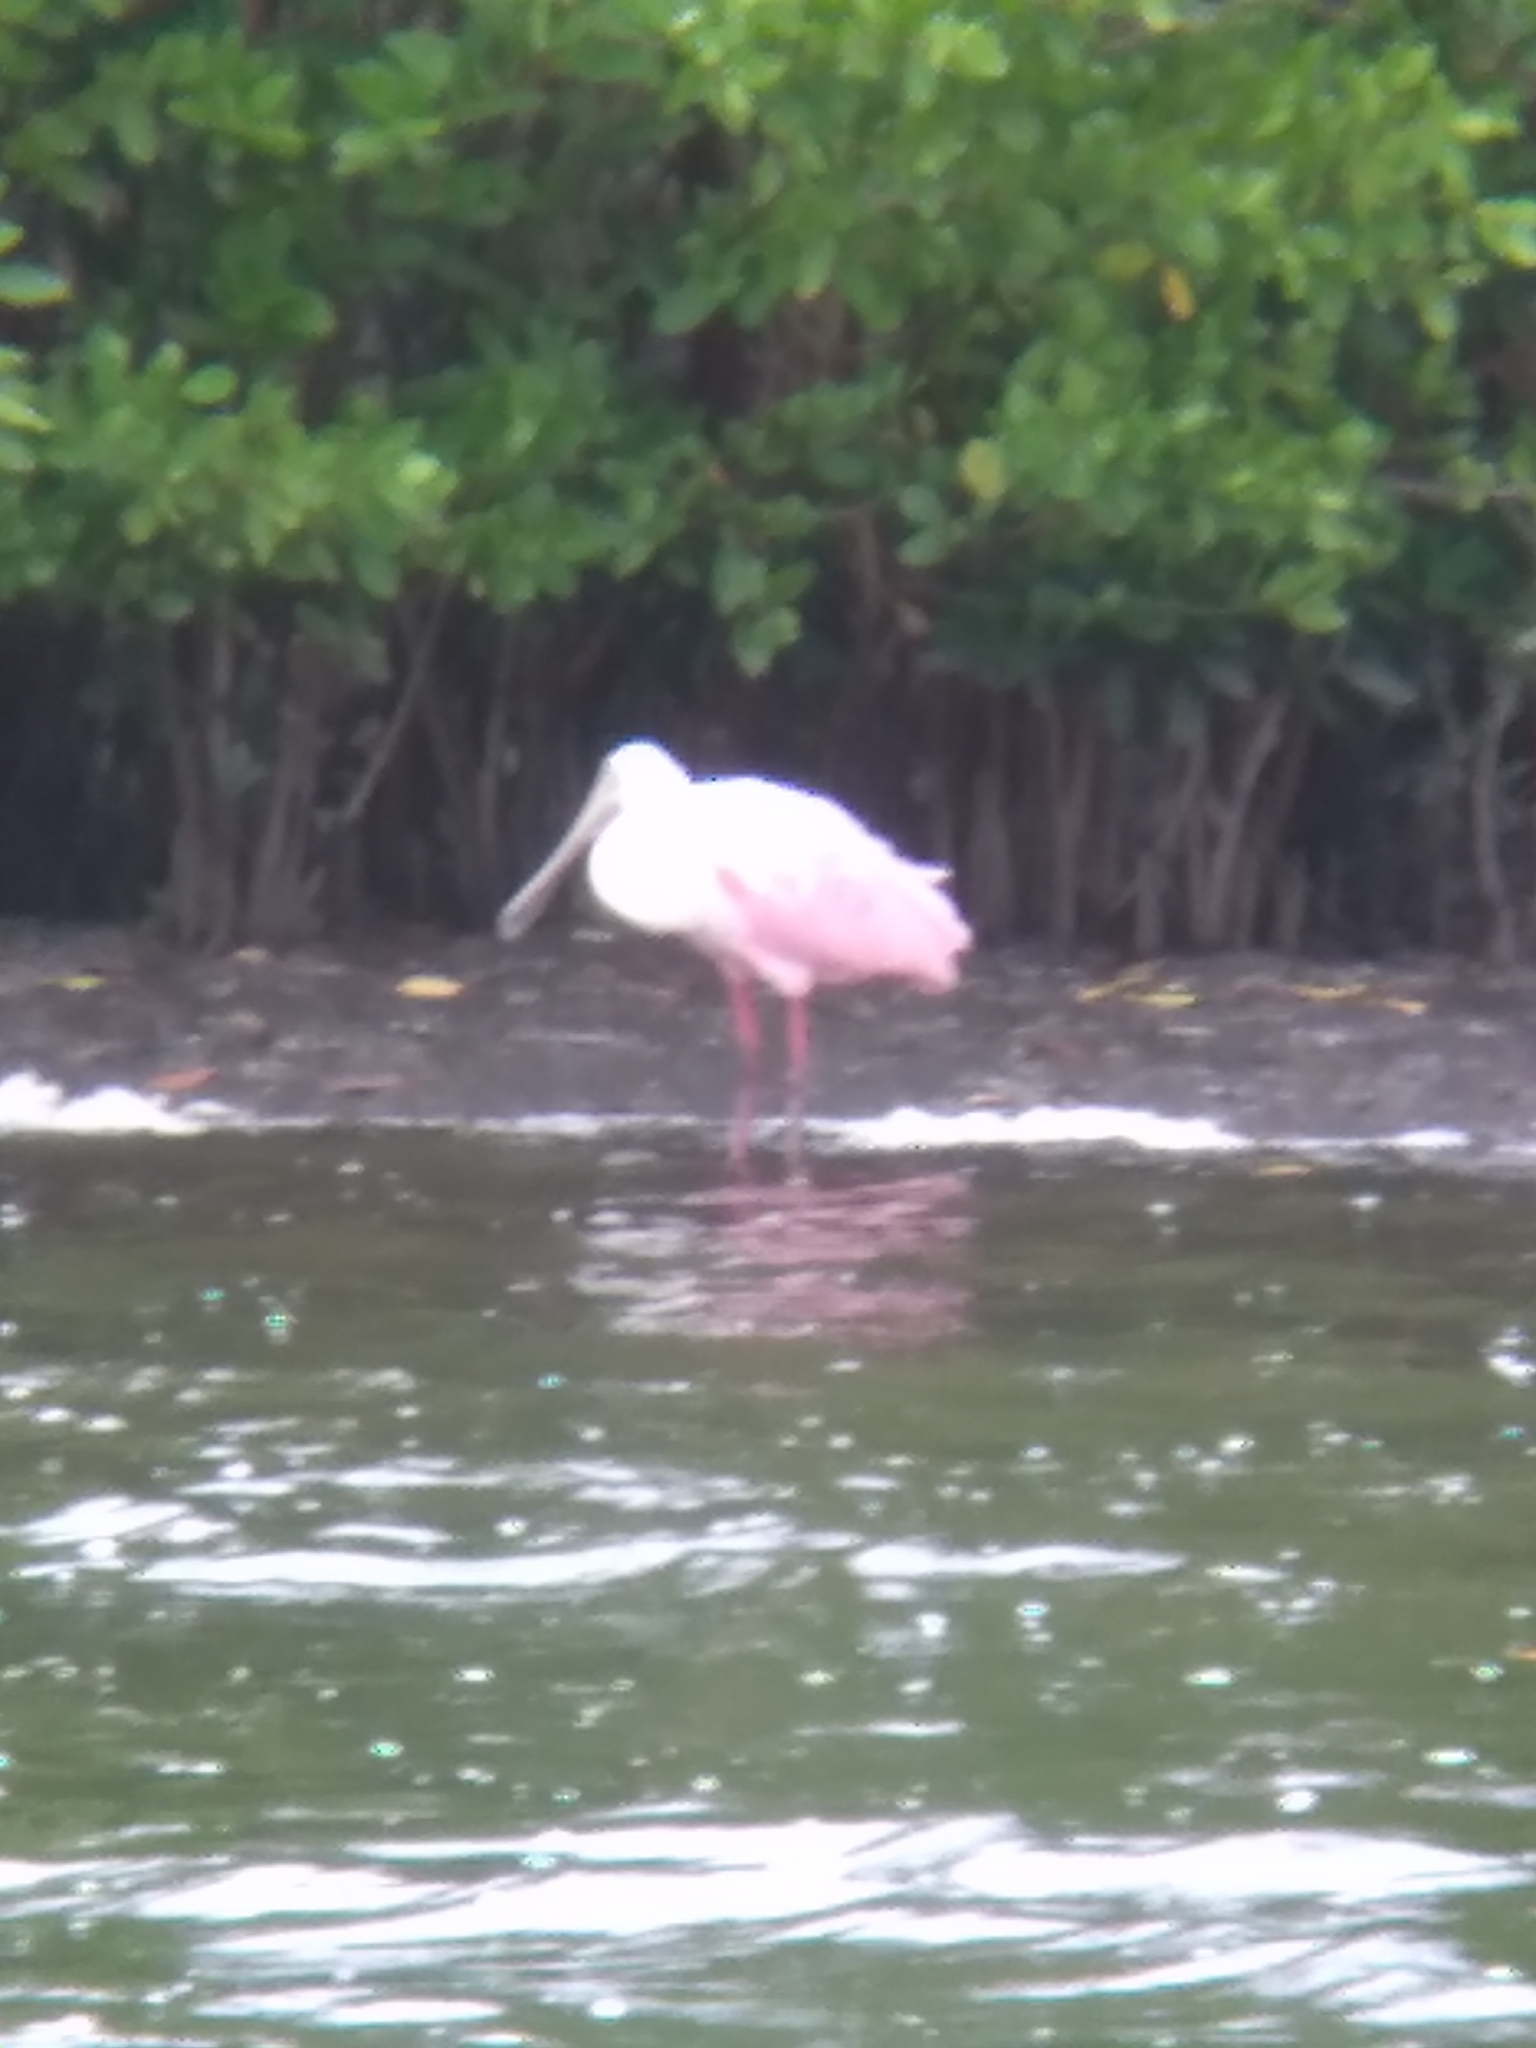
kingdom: Animalia
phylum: Chordata
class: Aves
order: Pelecaniformes
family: Threskiornithidae
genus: Platalea
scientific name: Platalea ajaja
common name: Roseate spoonbill
